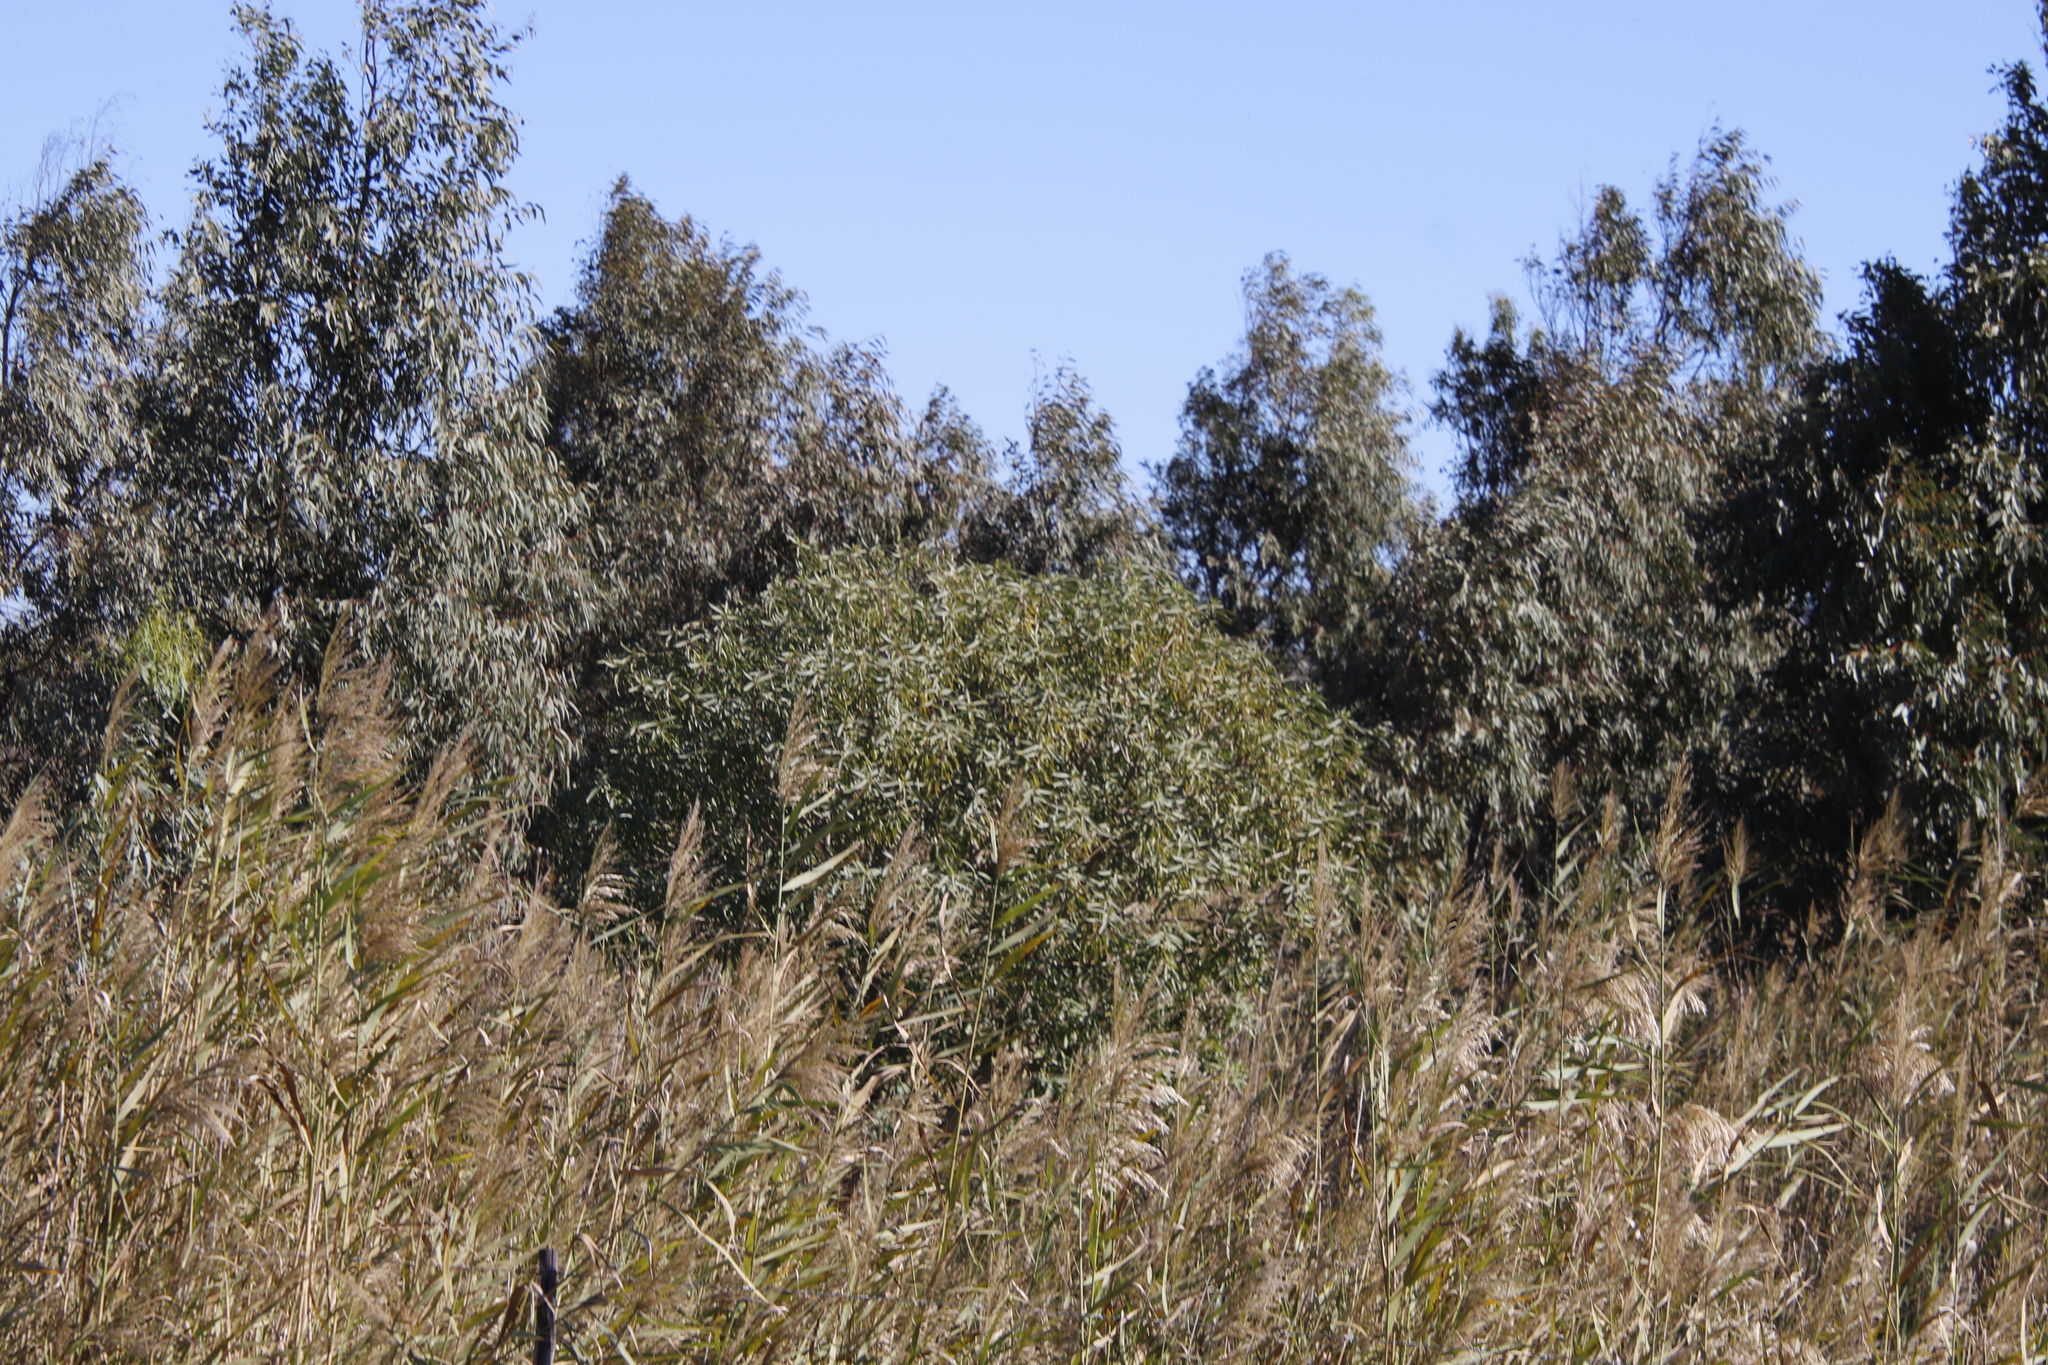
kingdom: Plantae
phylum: Tracheophyta
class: Magnoliopsida
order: Lamiales
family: Scrophulariaceae
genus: Myoporum
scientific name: Myoporum insulare
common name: Common boobialla
